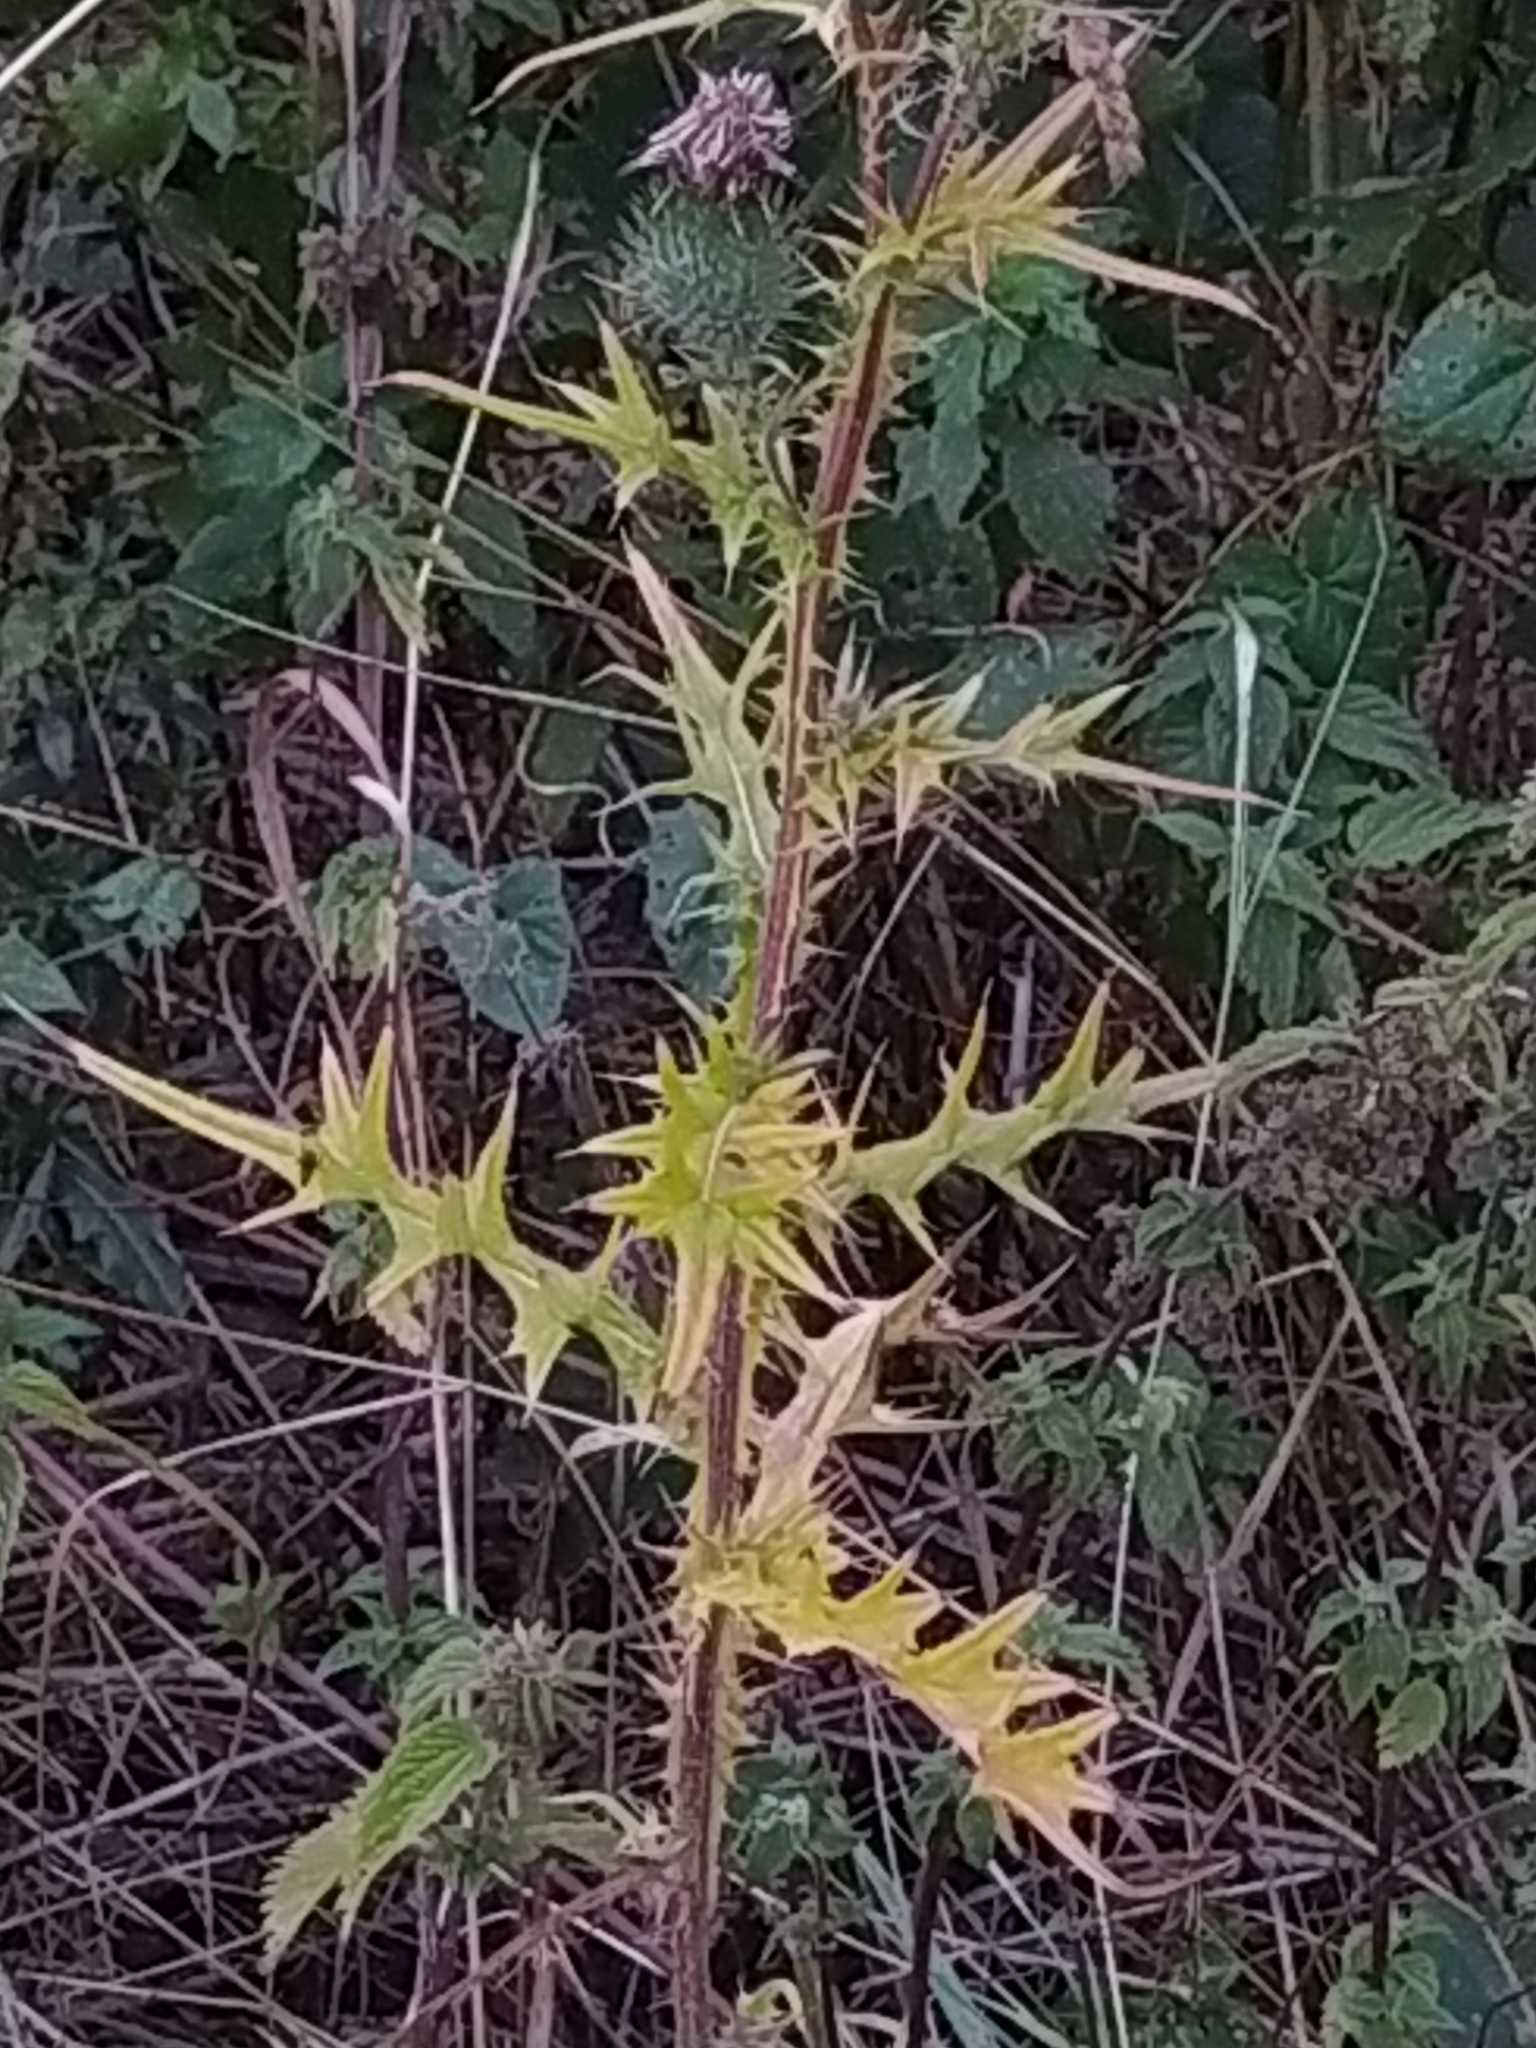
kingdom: Plantae
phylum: Tracheophyta
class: Magnoliopsida
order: Asterales
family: Asteraceae
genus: Cirsium
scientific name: Cirsium vulgare
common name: Bull thistle
